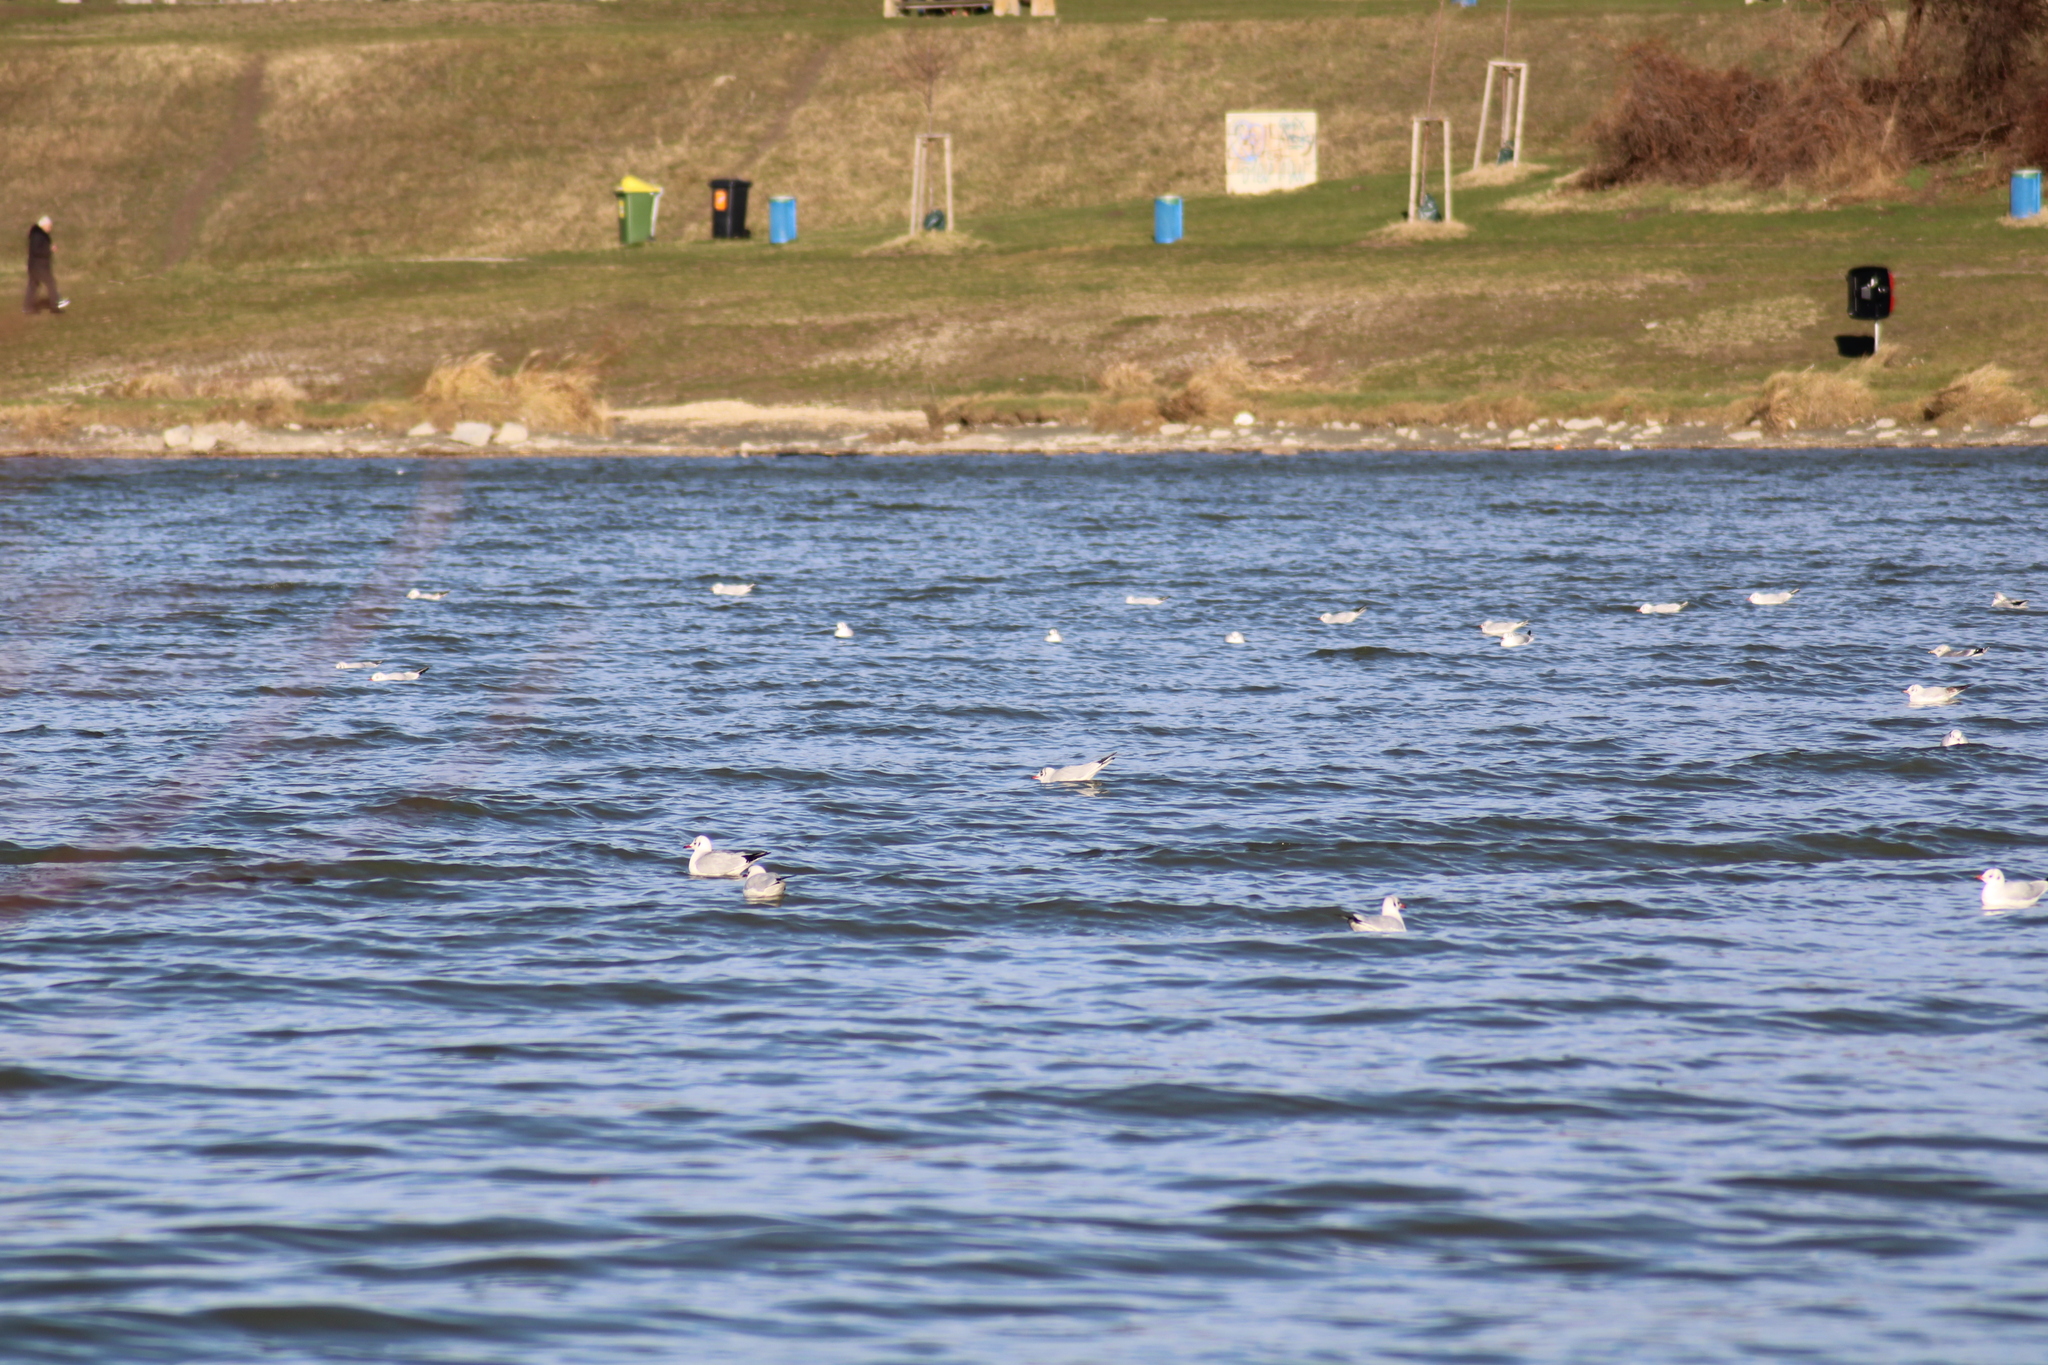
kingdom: Animalia
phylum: Chordata
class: Aves
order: Charadriiformes
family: Laridae
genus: Chroicocephalus
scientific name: Chroicocephalus ridibundus
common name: Black-headed gull
